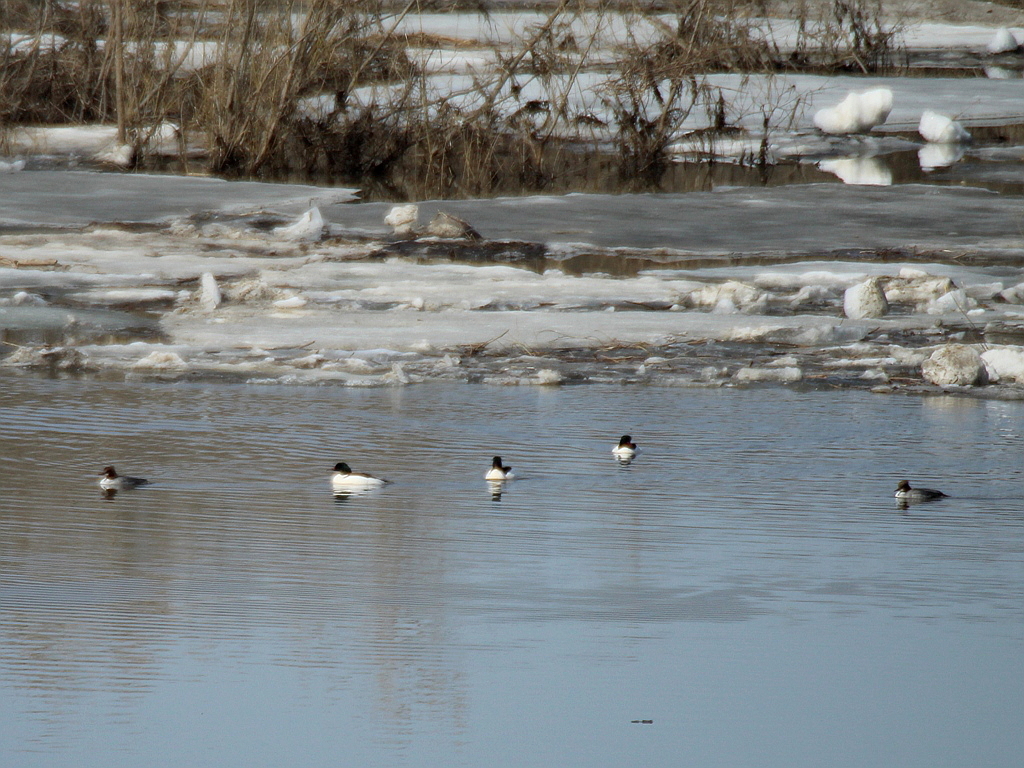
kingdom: Animalia
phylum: Chordata
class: Aves
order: Anseriformes
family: Anatidae
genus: Mergus
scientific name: Mergus merganser
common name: Common merganser
